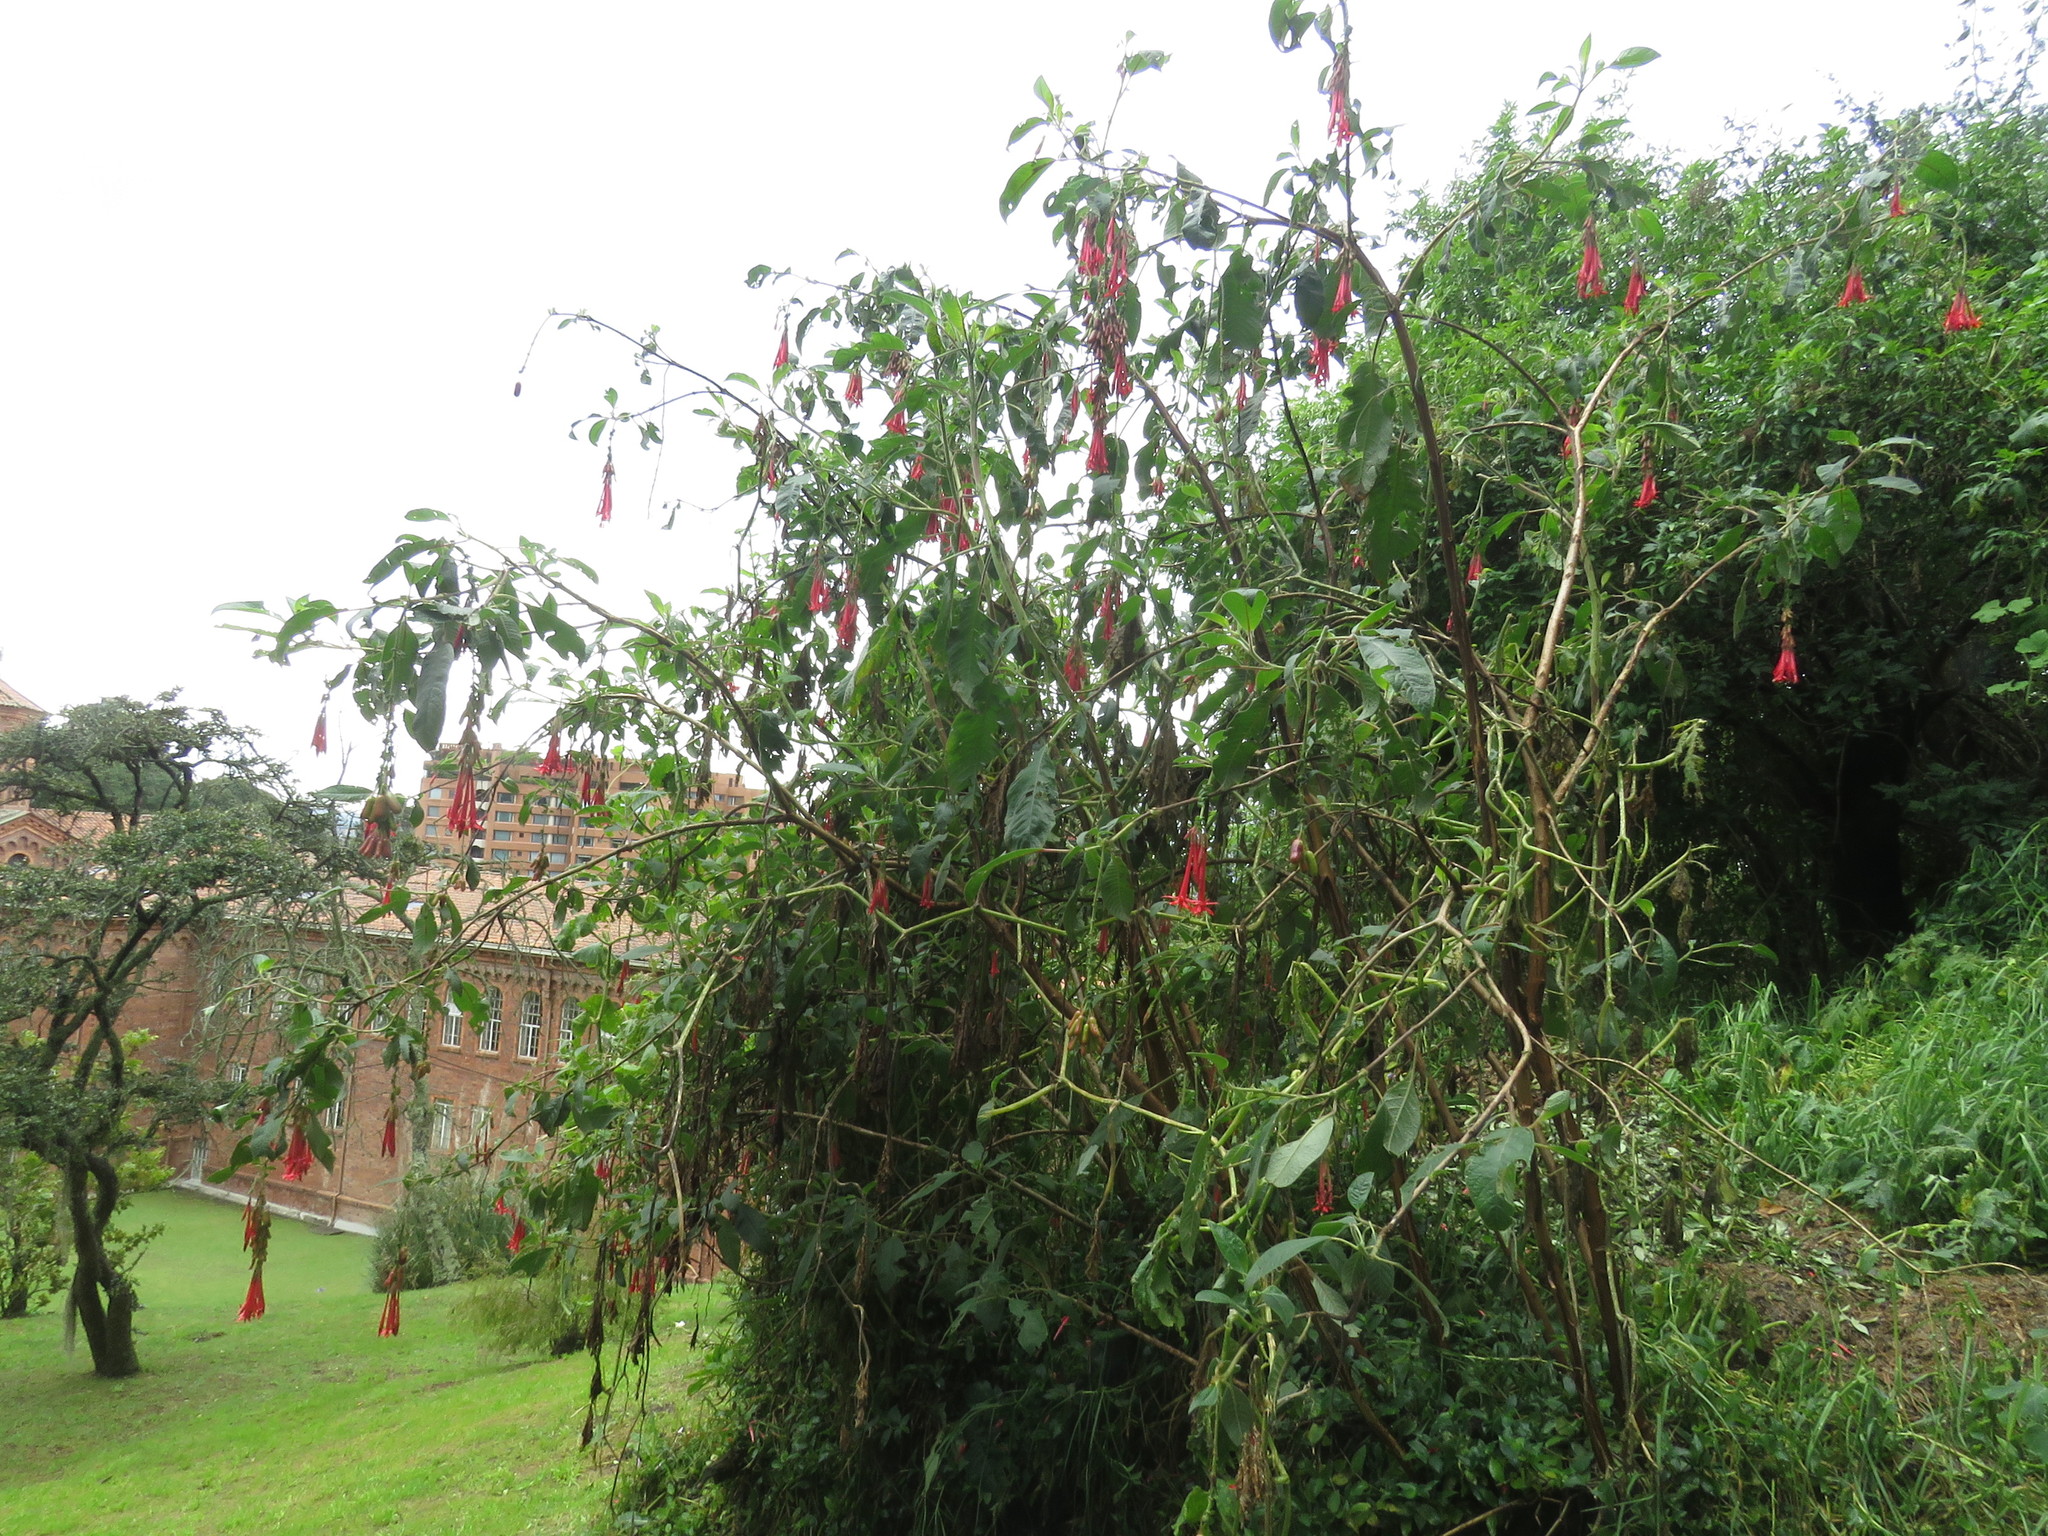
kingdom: Plantae
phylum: Tracheophyta
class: Magnoliopsida
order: Myrtales
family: Onagraceae
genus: Fuchsia
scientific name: Fuchsia boliviana
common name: Bolivian fuchsia
